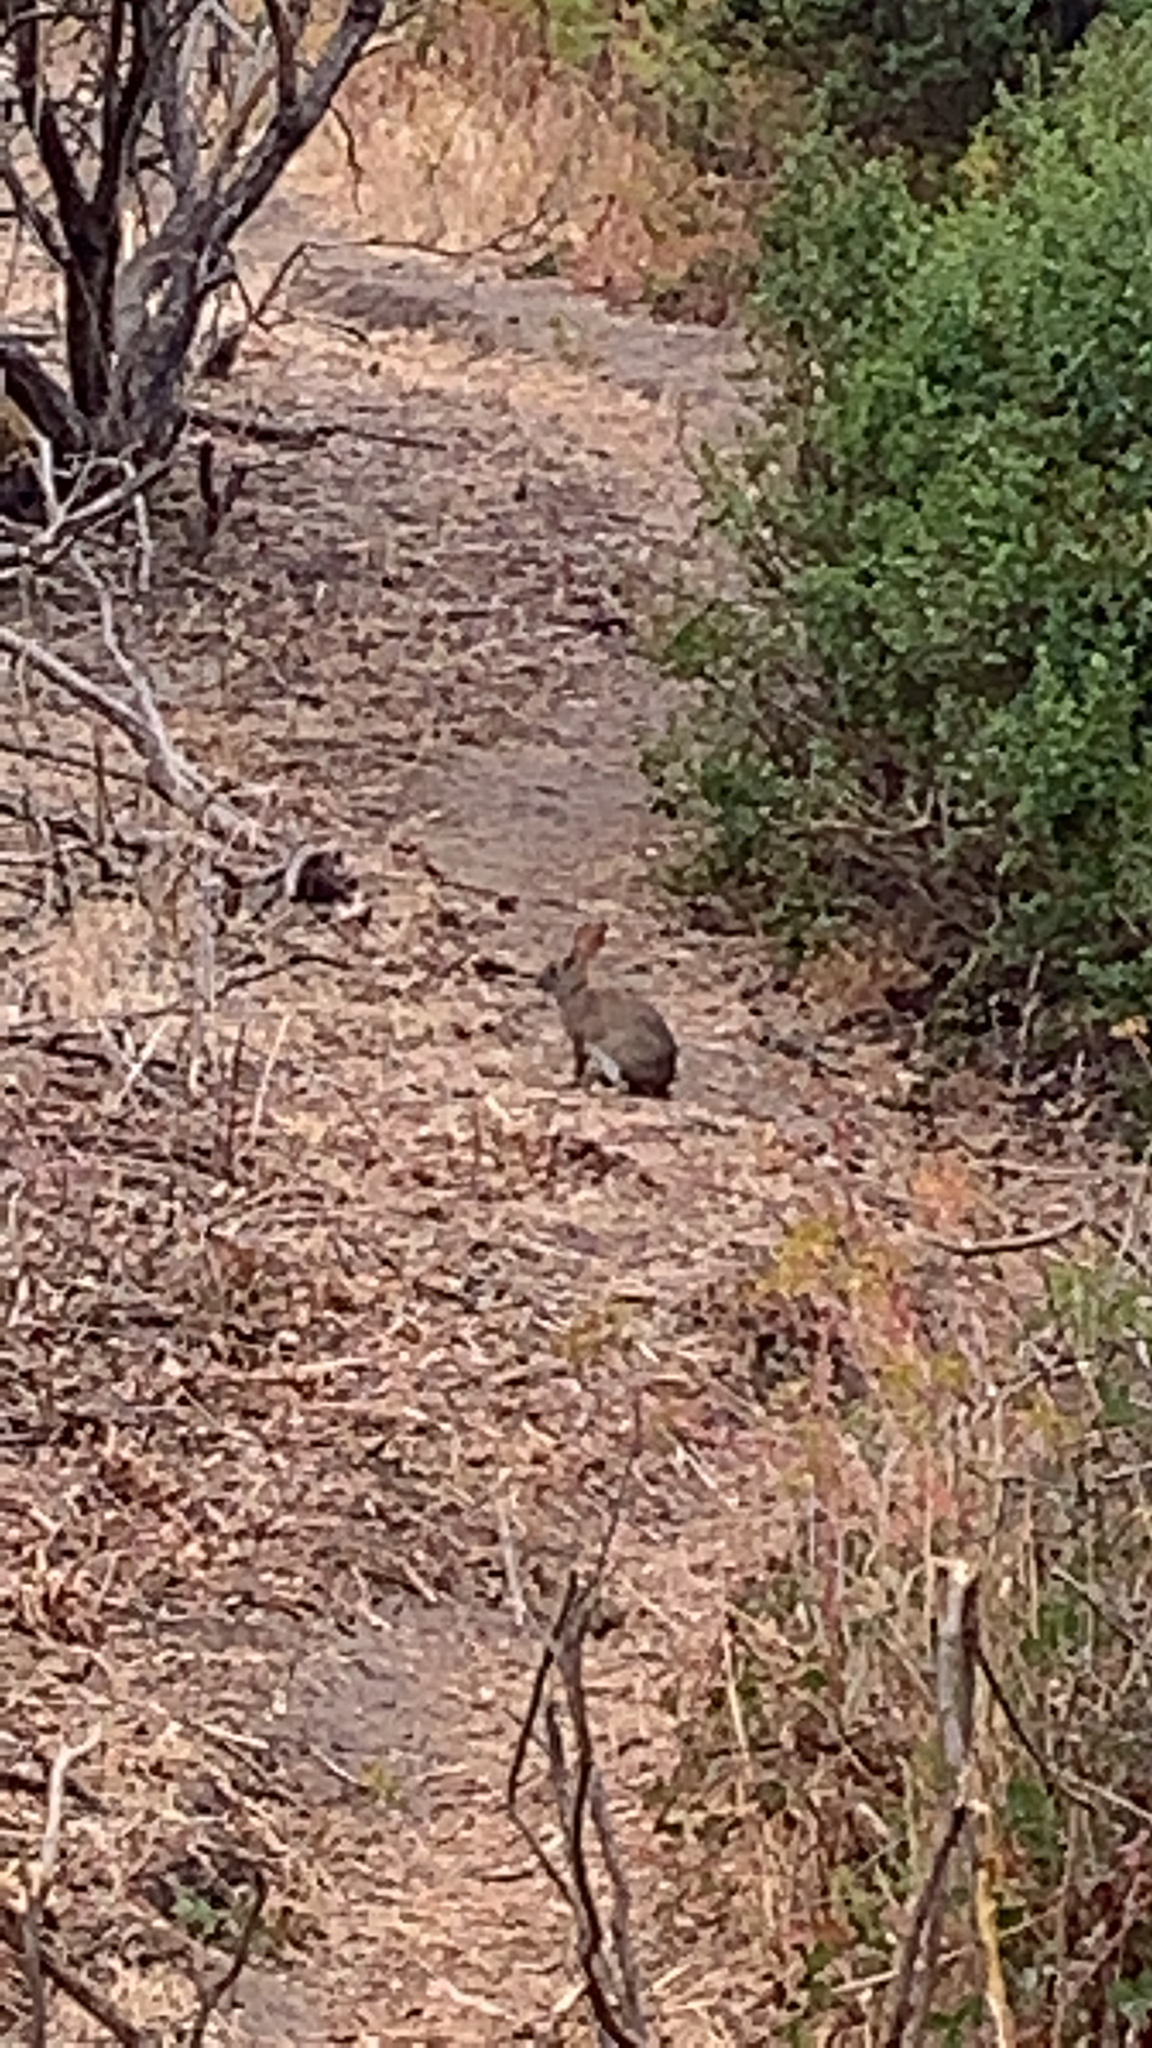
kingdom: Animalia
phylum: Chordata
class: Mammalia
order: Lagomorpha
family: Leporidae
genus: Sylvilagus
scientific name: Sylvilagus bachmani
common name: Brush rabbit
